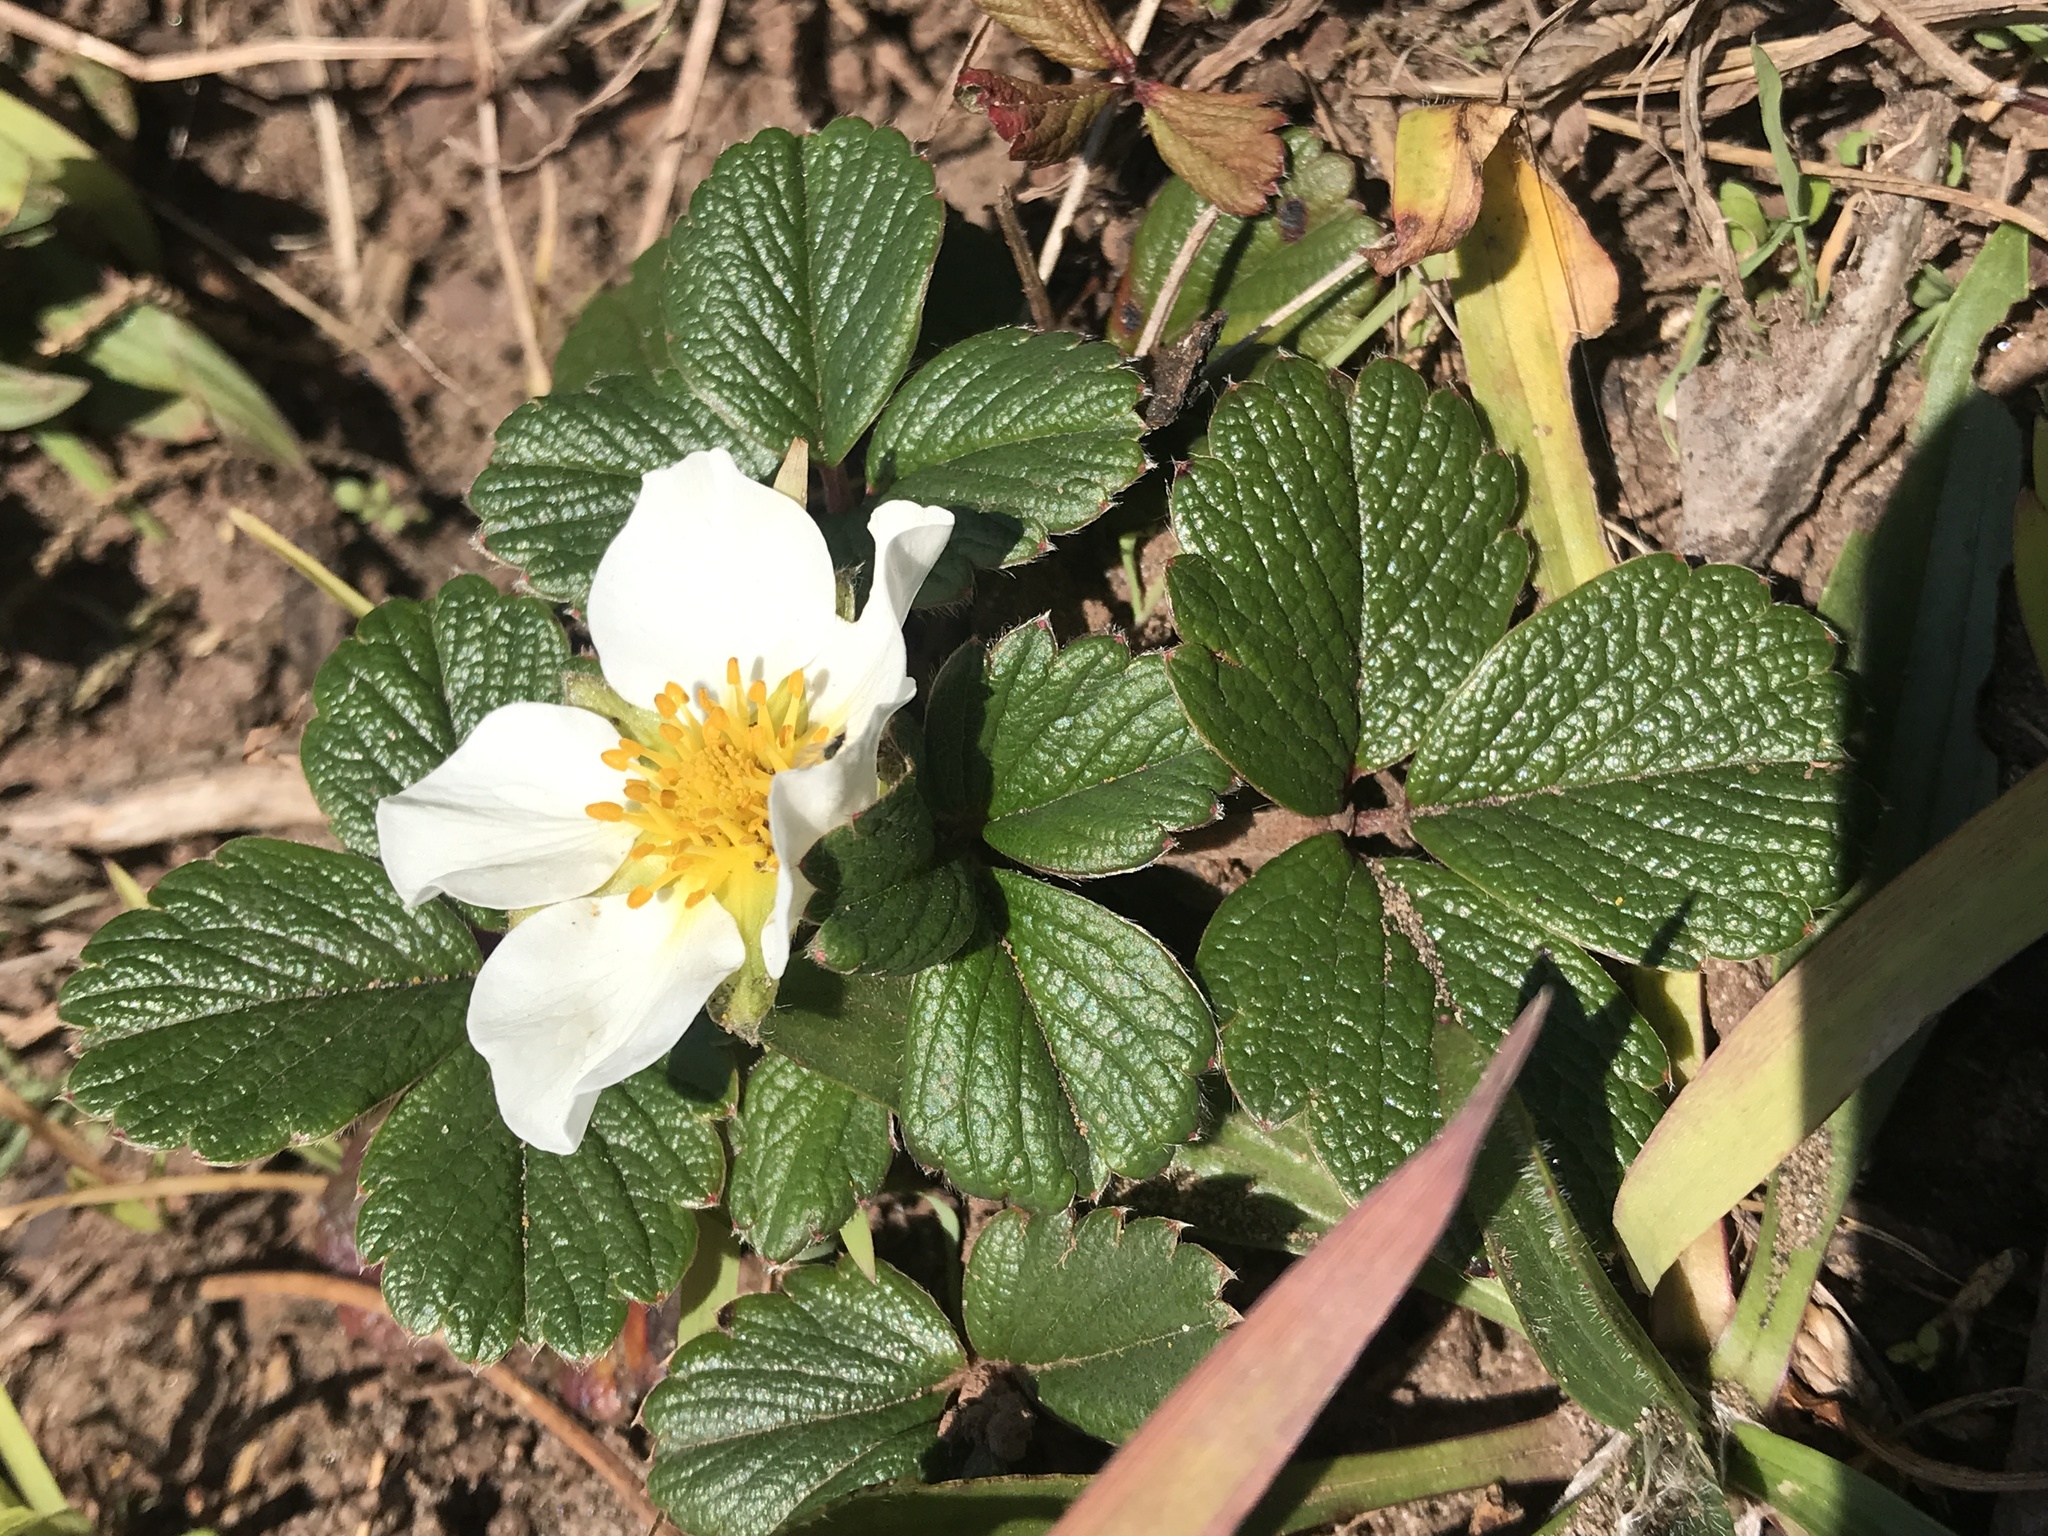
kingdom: Plantae
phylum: Tracheophyta
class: Magnoliopsida
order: Rosales
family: Rosaceae
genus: Fragaria
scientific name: Fragaria chiloensis
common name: Beach strawberry
